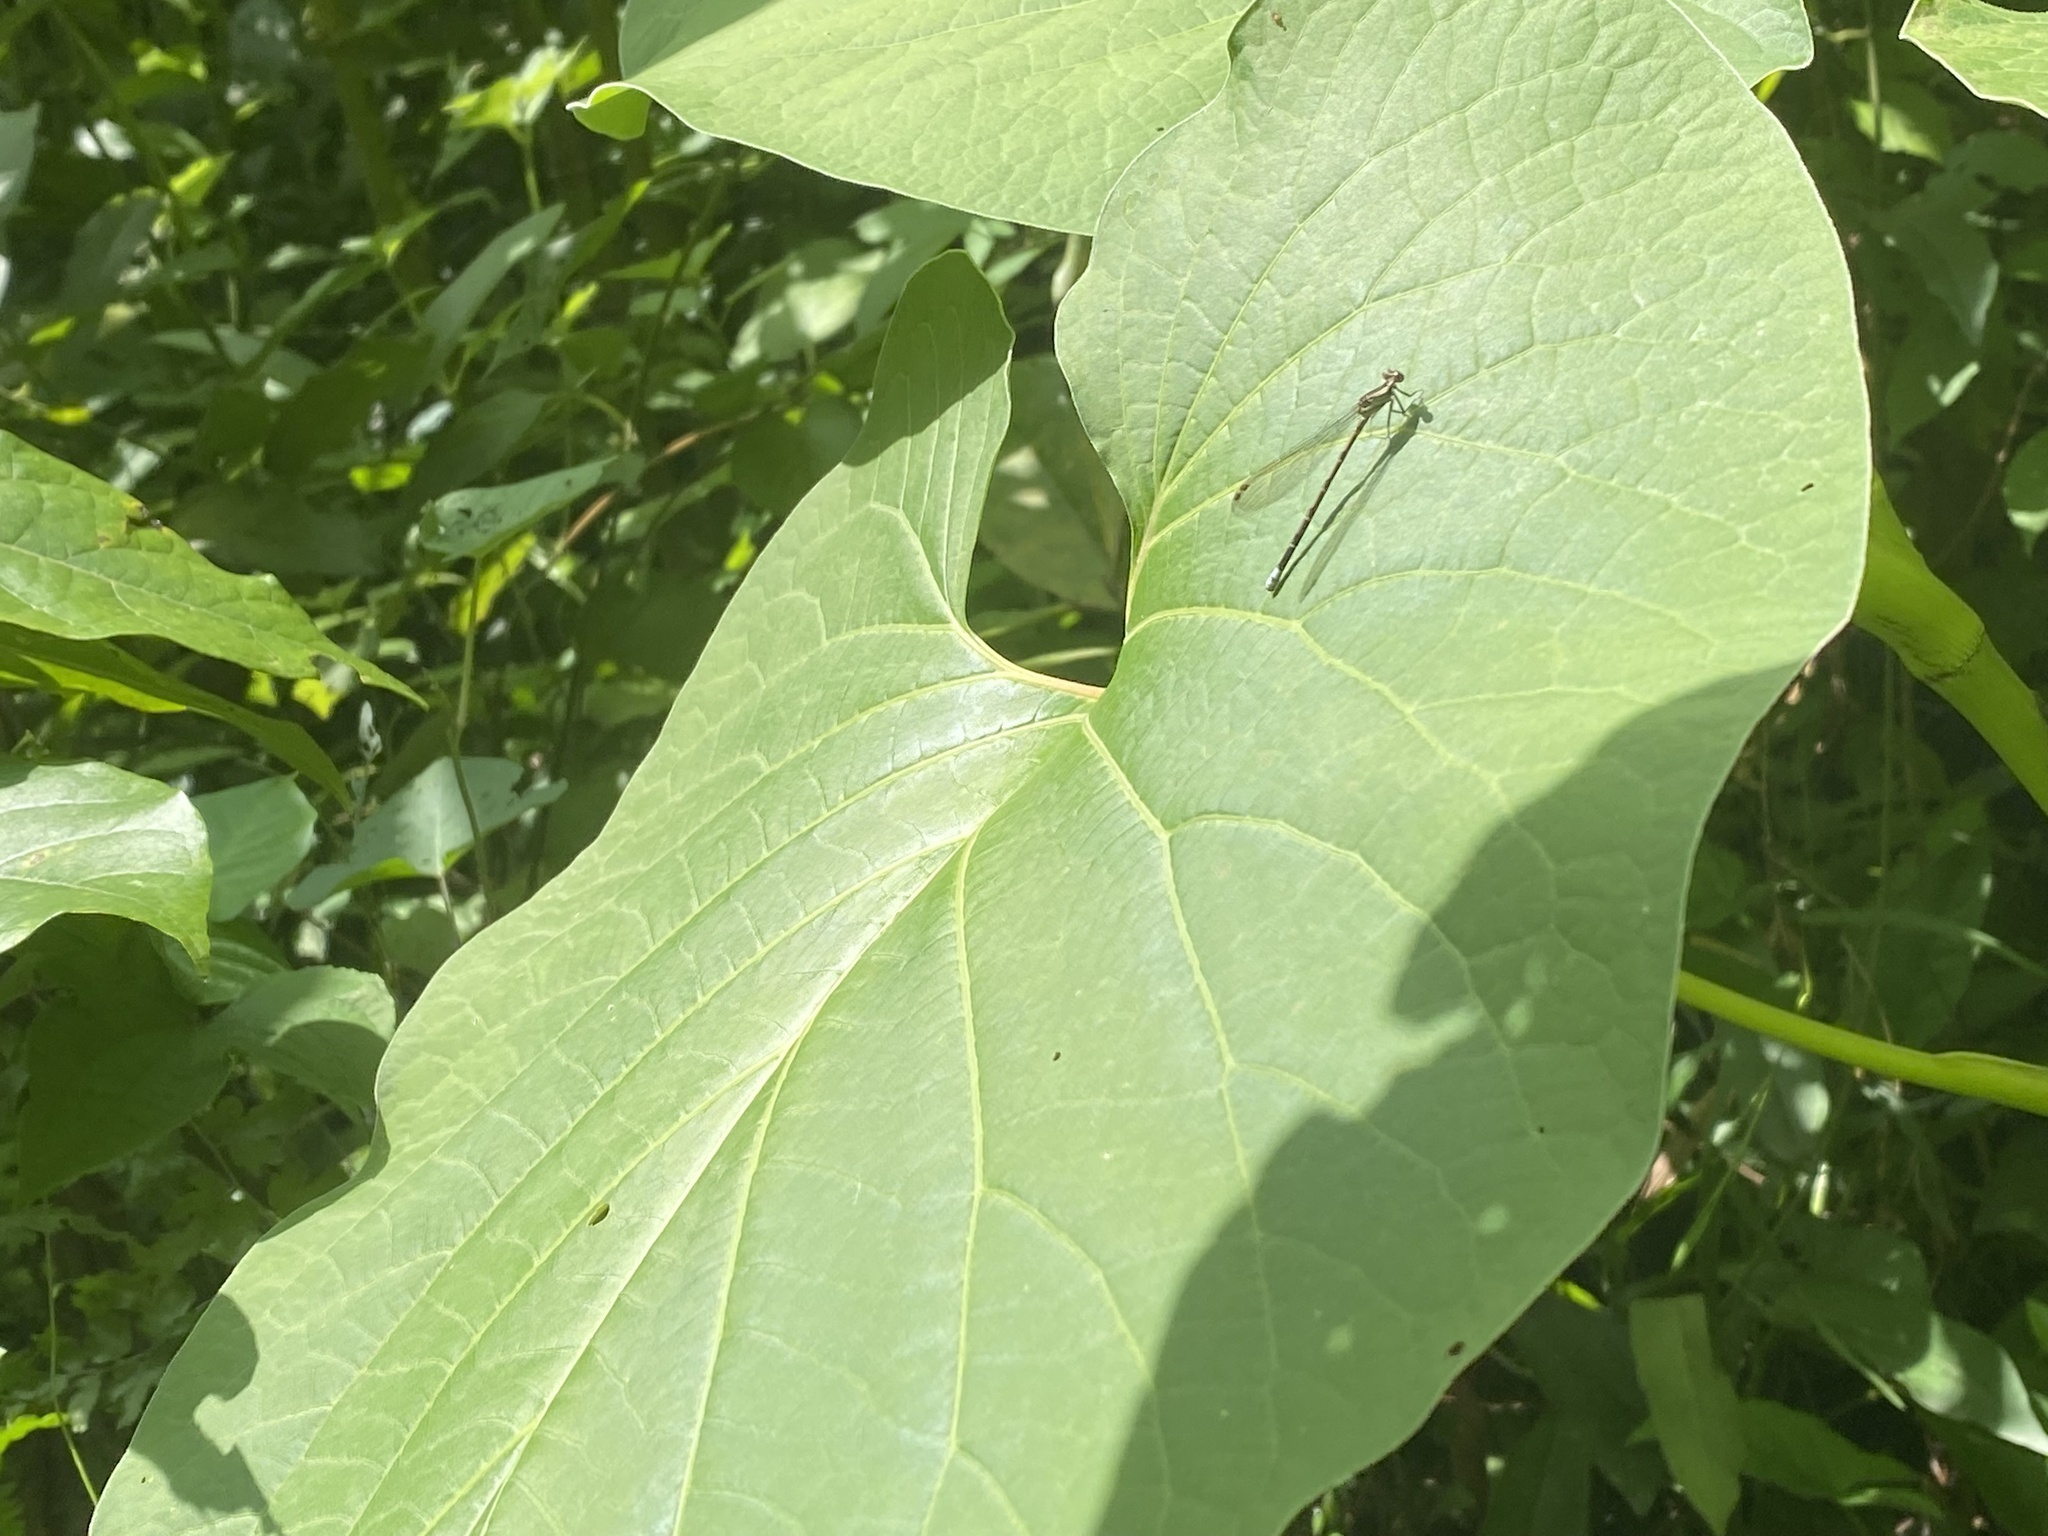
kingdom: Animalia
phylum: Arthropoda
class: Insecta
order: Odonata
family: Coenagrionidae
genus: Argia
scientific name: Argia elongata
